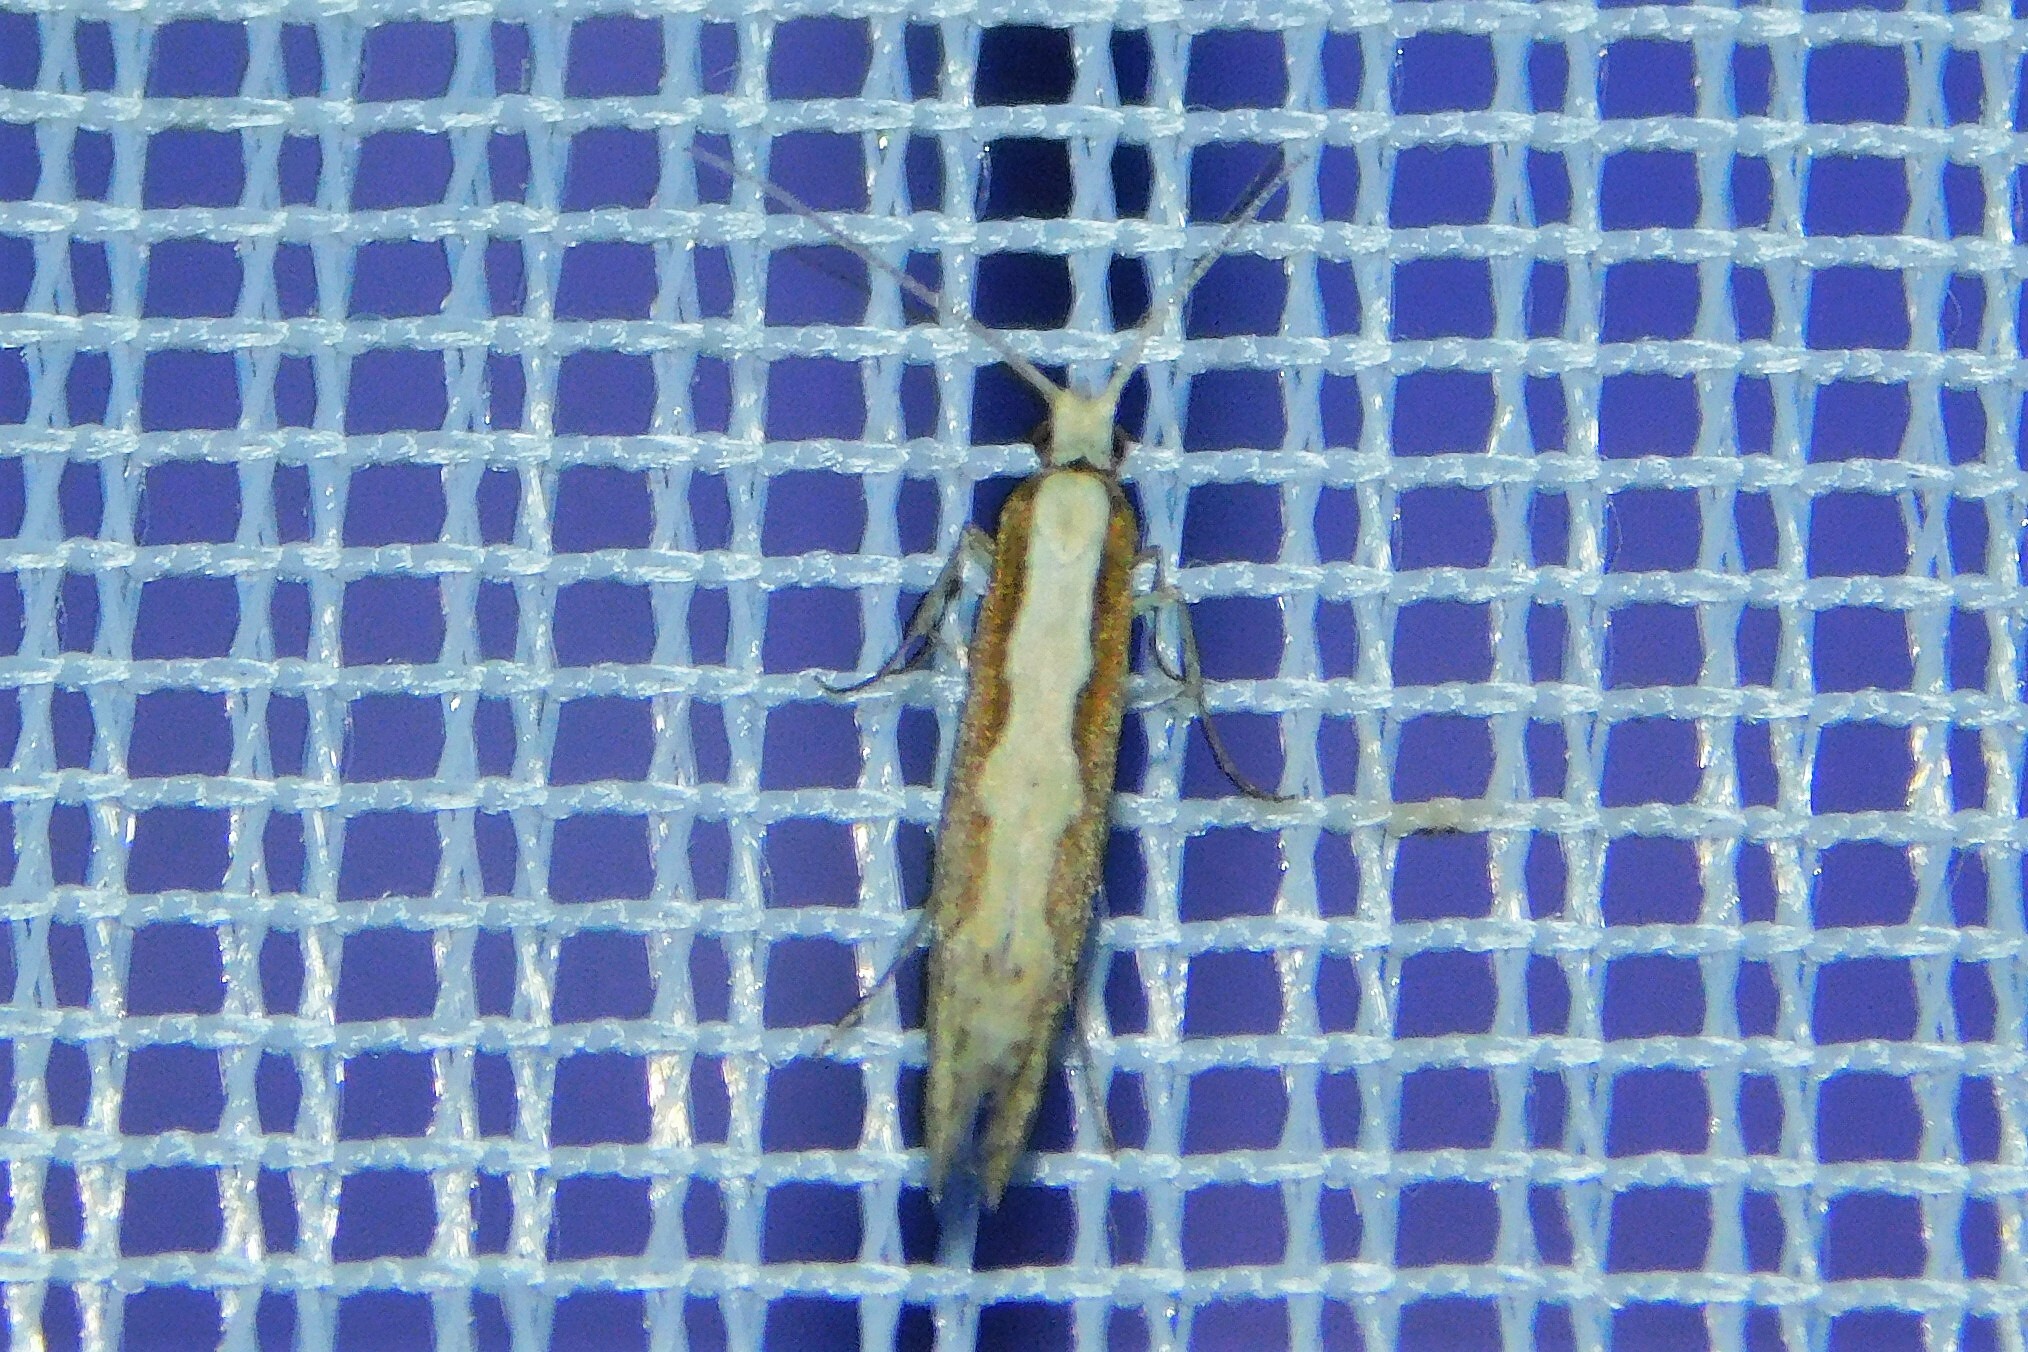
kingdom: Animalia
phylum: Arthropoda
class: Insecta
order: Lepidoptera
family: Plutellidae
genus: Plutella
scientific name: Plutella xylostella
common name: Diamond-back moth
